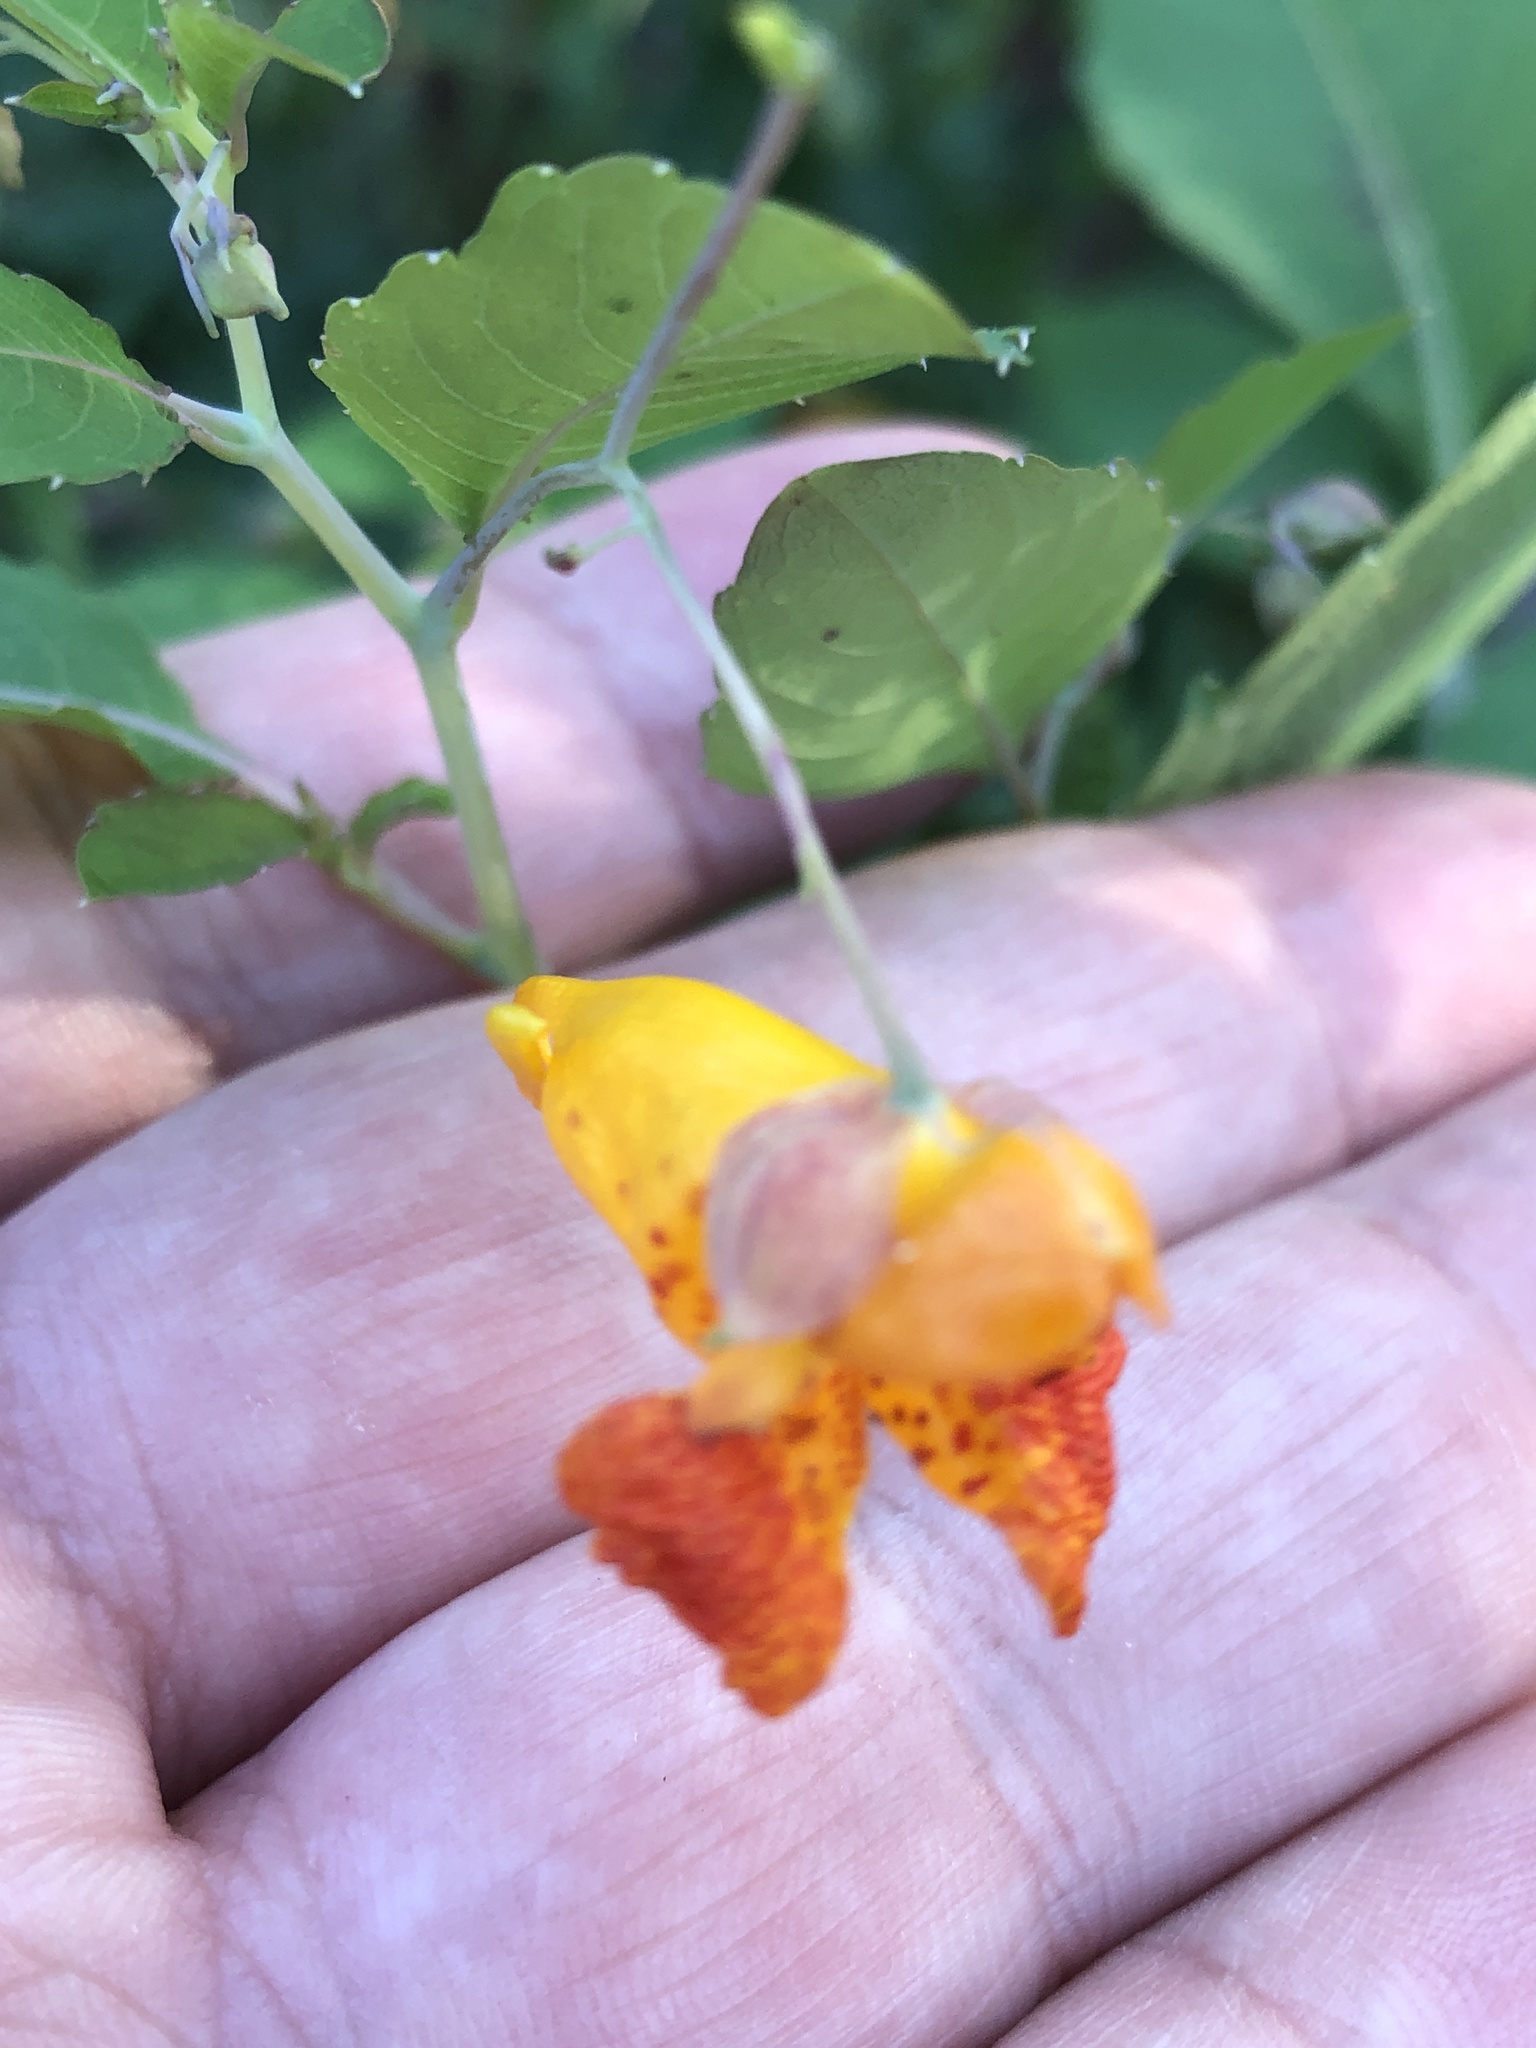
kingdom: Plantae
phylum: Tracheophyta
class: Magnoliopsida
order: Ericales
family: Balsaminaceae
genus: Impatiens
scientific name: Impatiens capensis
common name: Orange balsam
